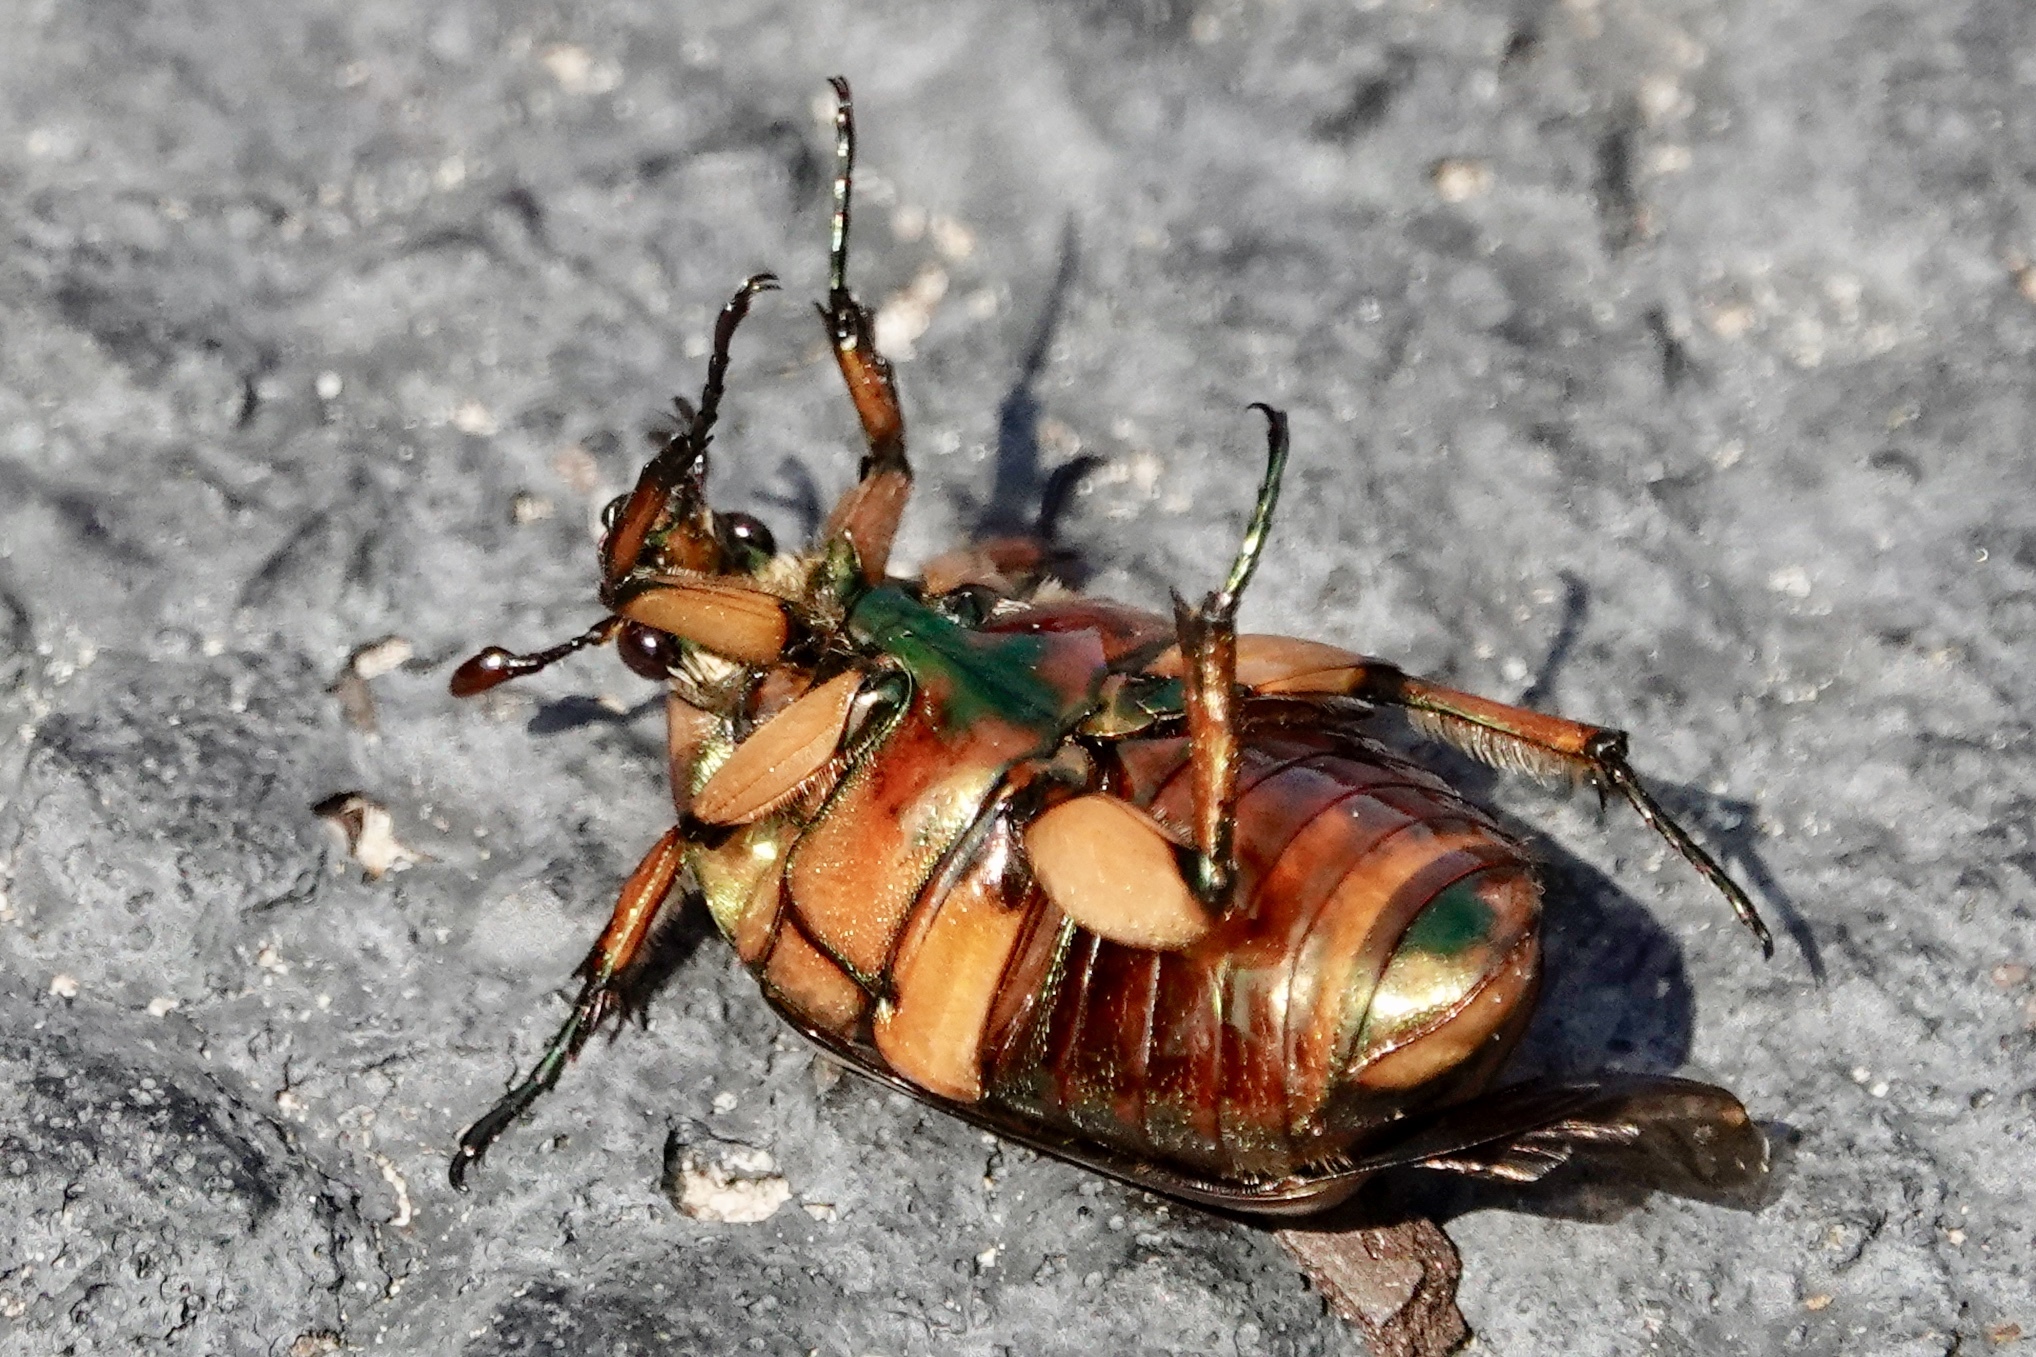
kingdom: Animalia
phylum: Arthropoda
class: Insecta
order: Coleoptera
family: Scarabaeidae
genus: Cotinis
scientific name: Cotinis nitida
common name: Common green june beetle
